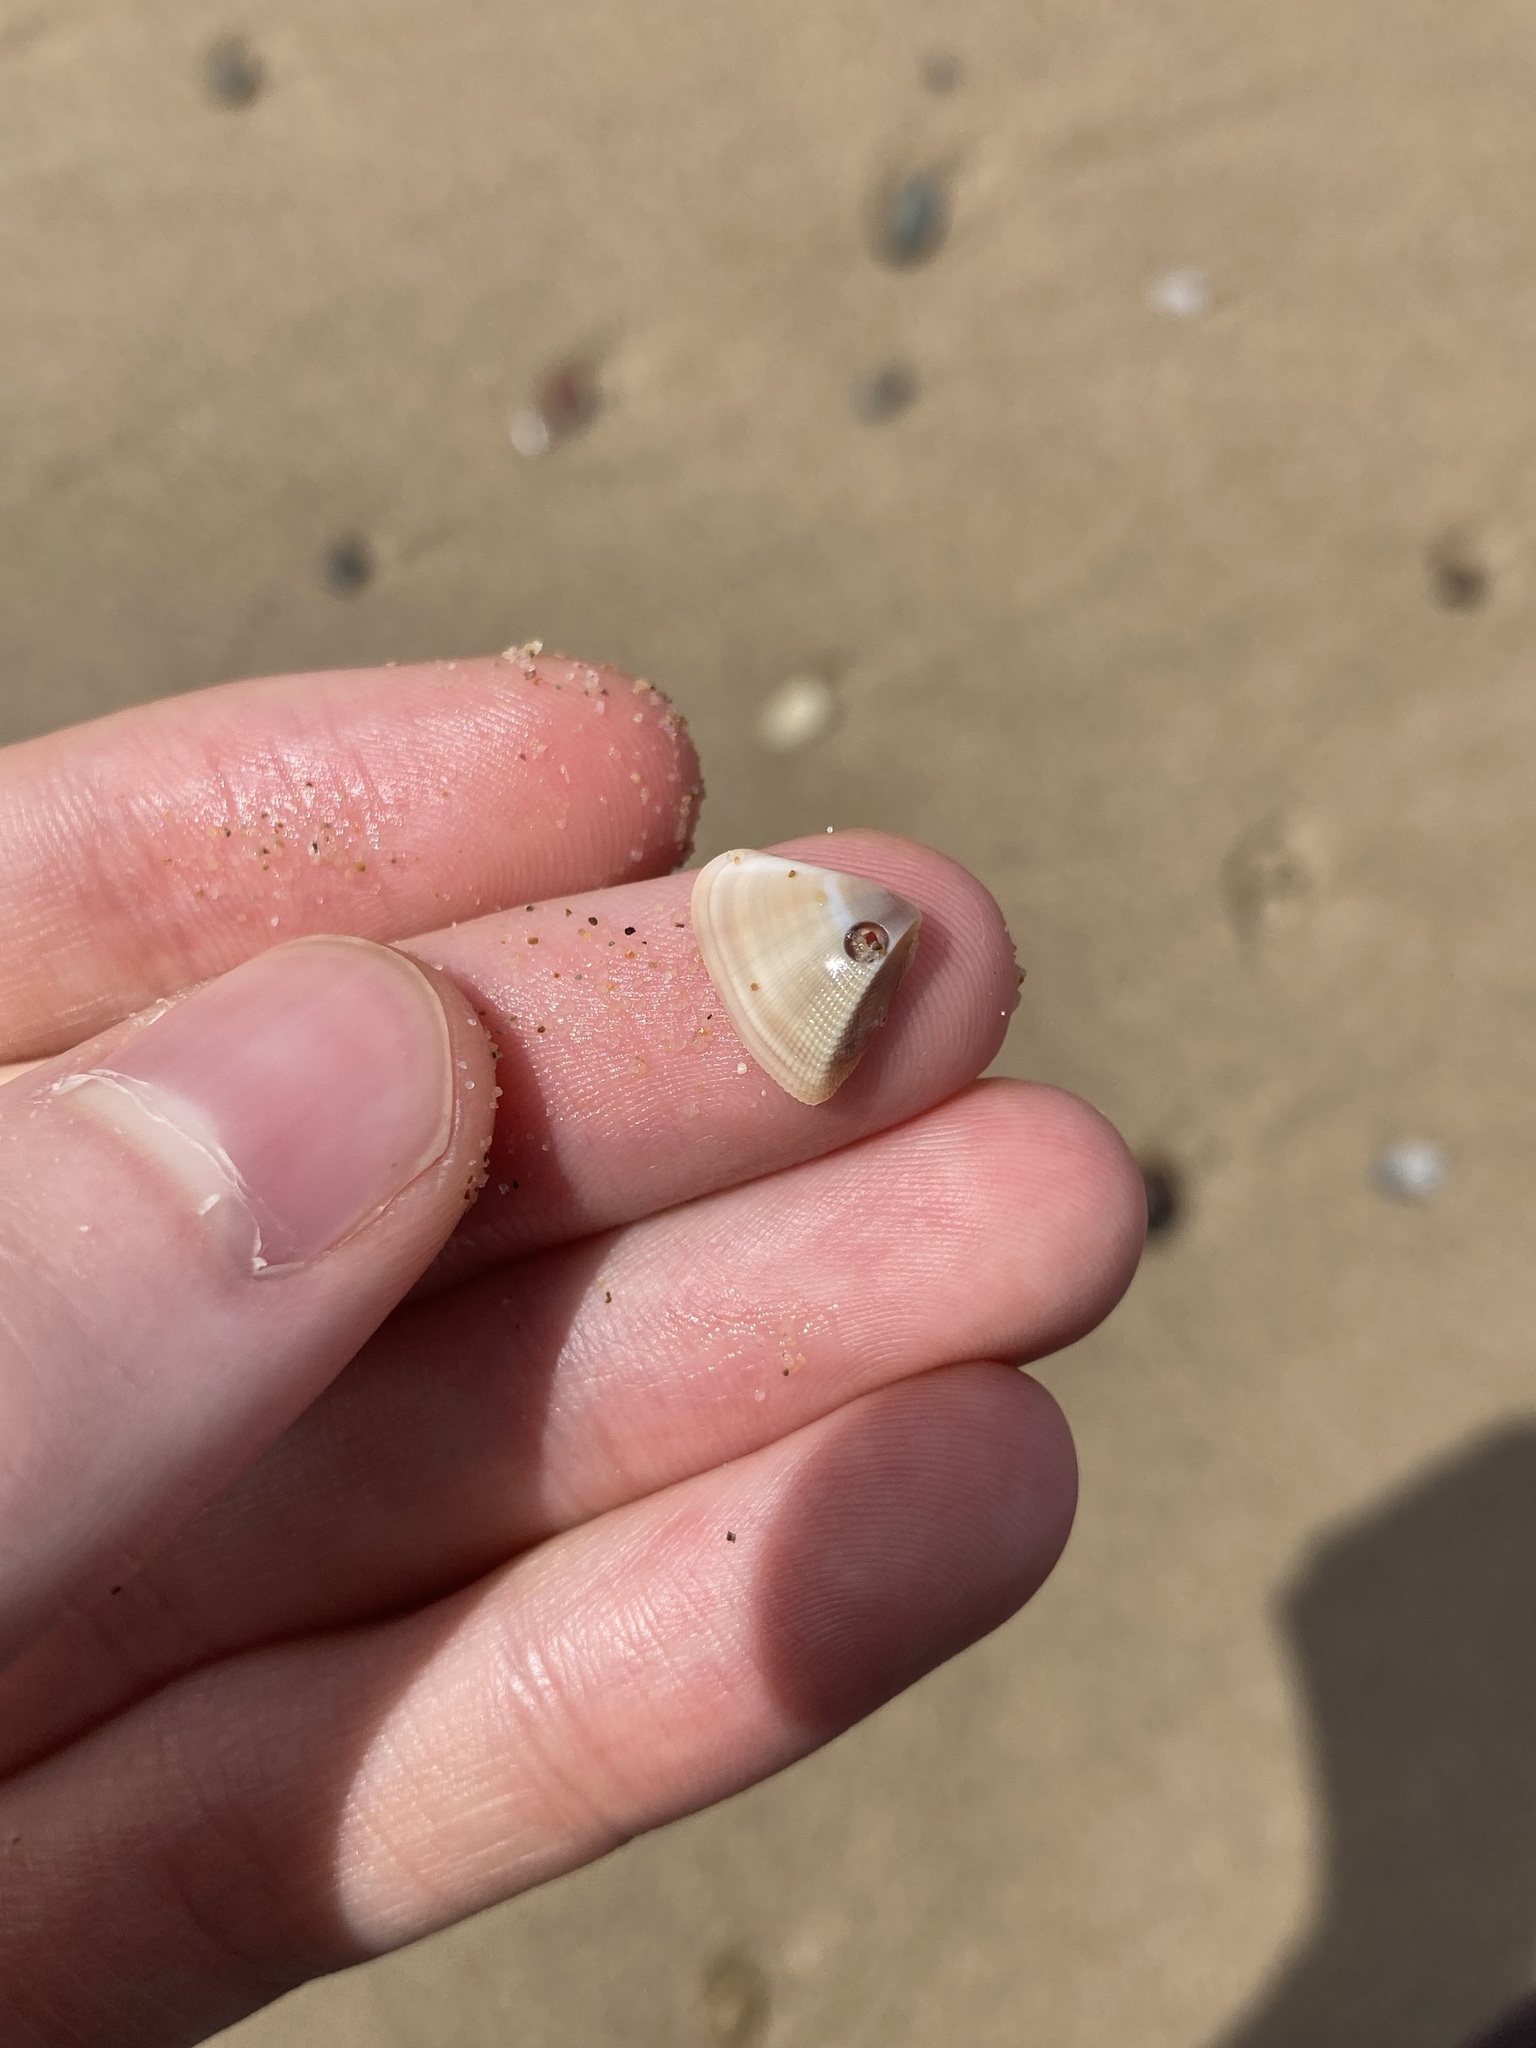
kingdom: Animalia
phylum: Mollusca
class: Bivalvia
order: Cardiida
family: Donacidae
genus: Donax
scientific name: Donax brazieri
